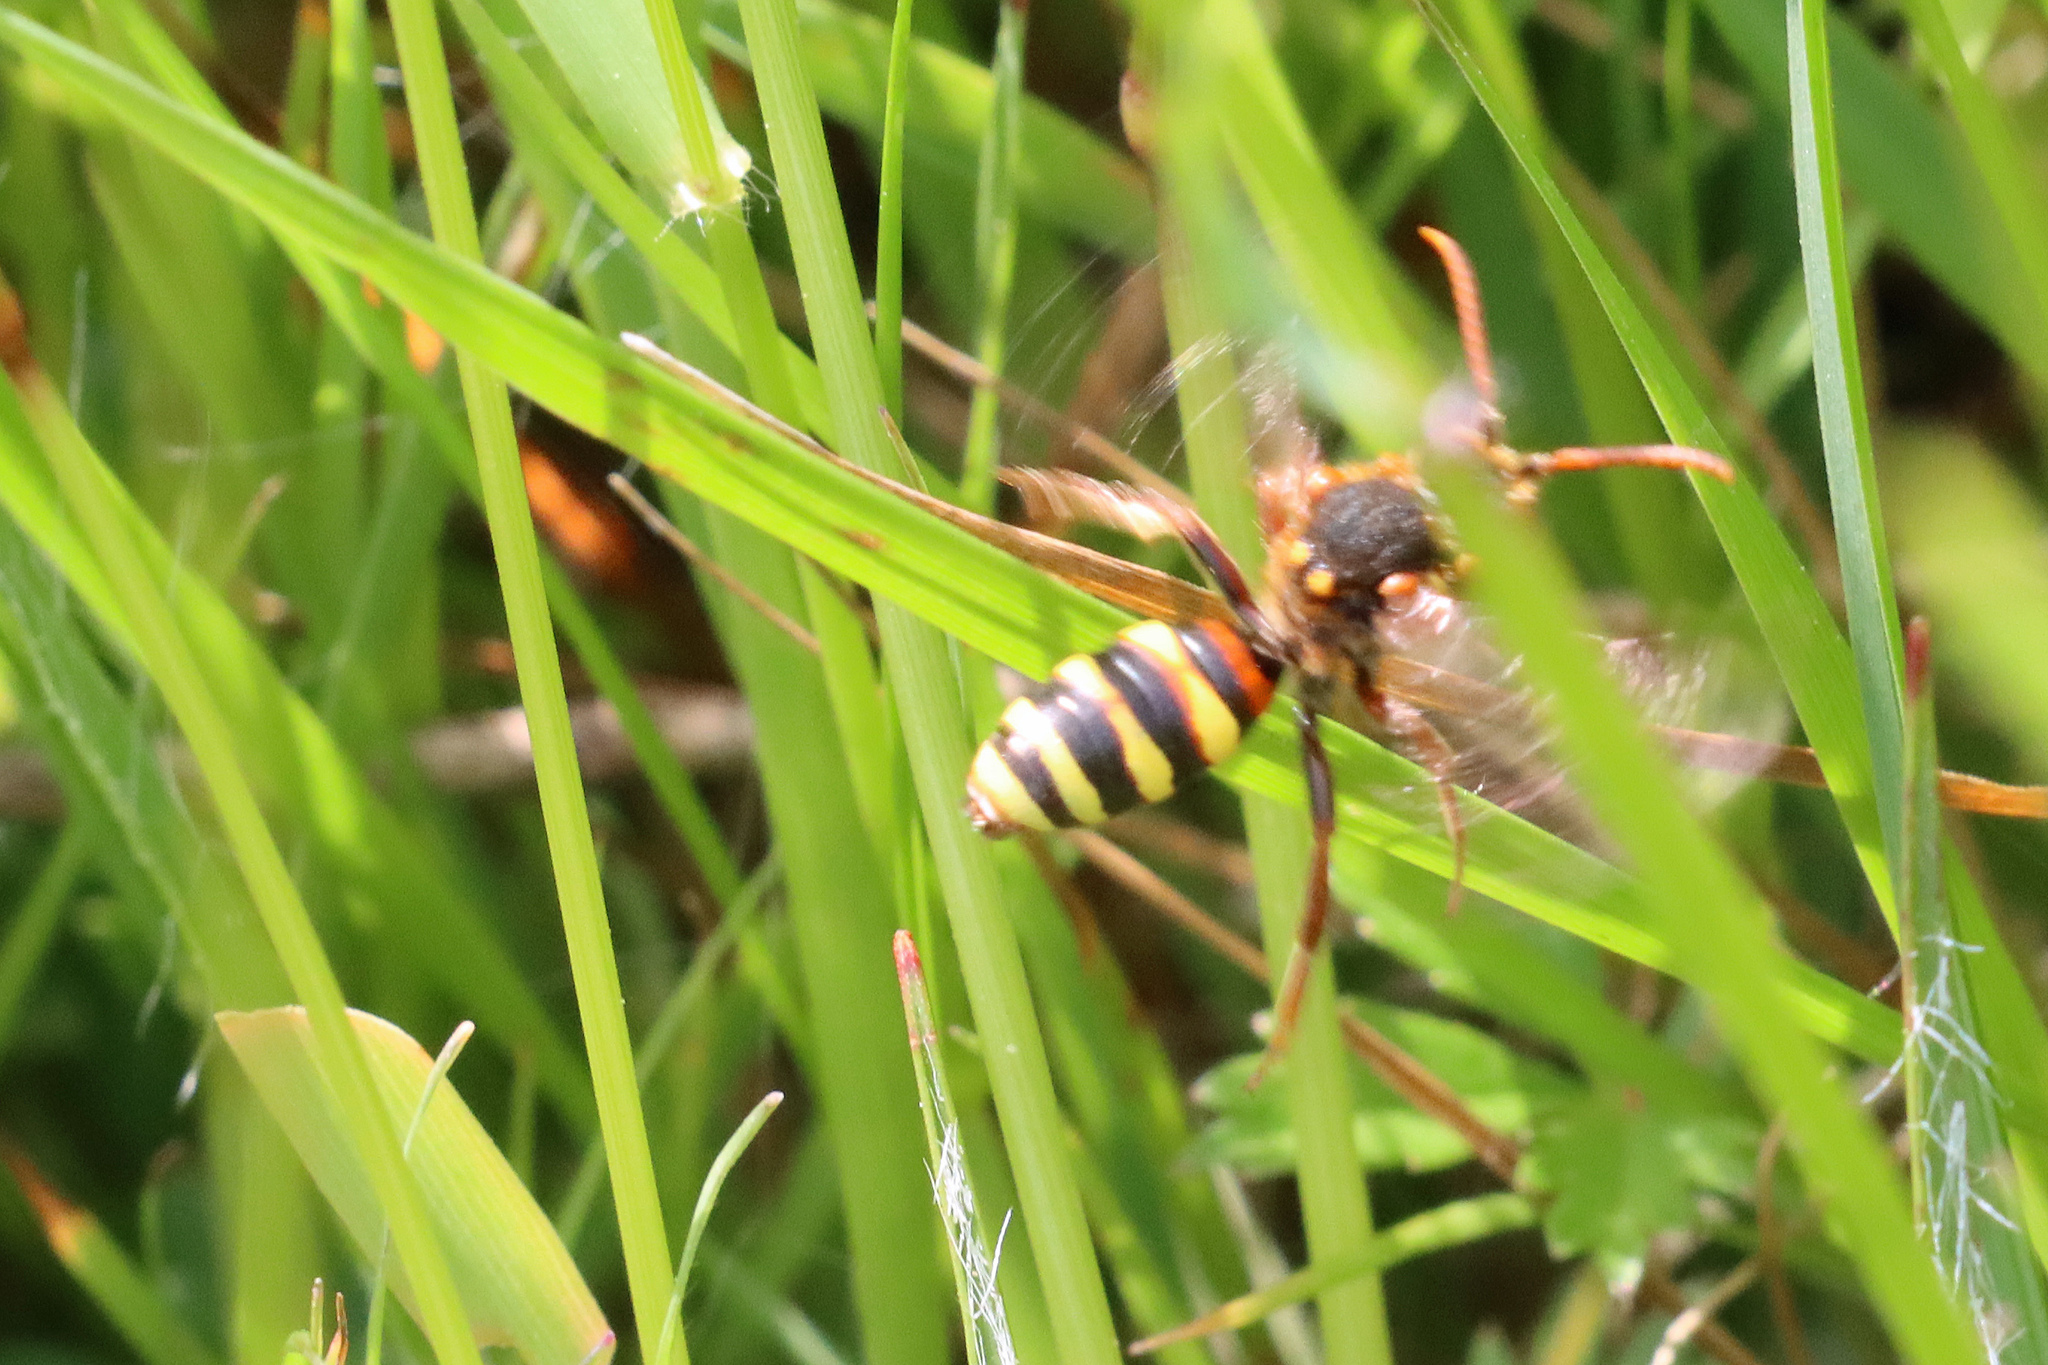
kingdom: Animalia
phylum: Arthropoda
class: Insecta
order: Hymenoptera
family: Apidae
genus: Nomada
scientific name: Nomada lathburiana
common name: Lathbury's nomad bee
